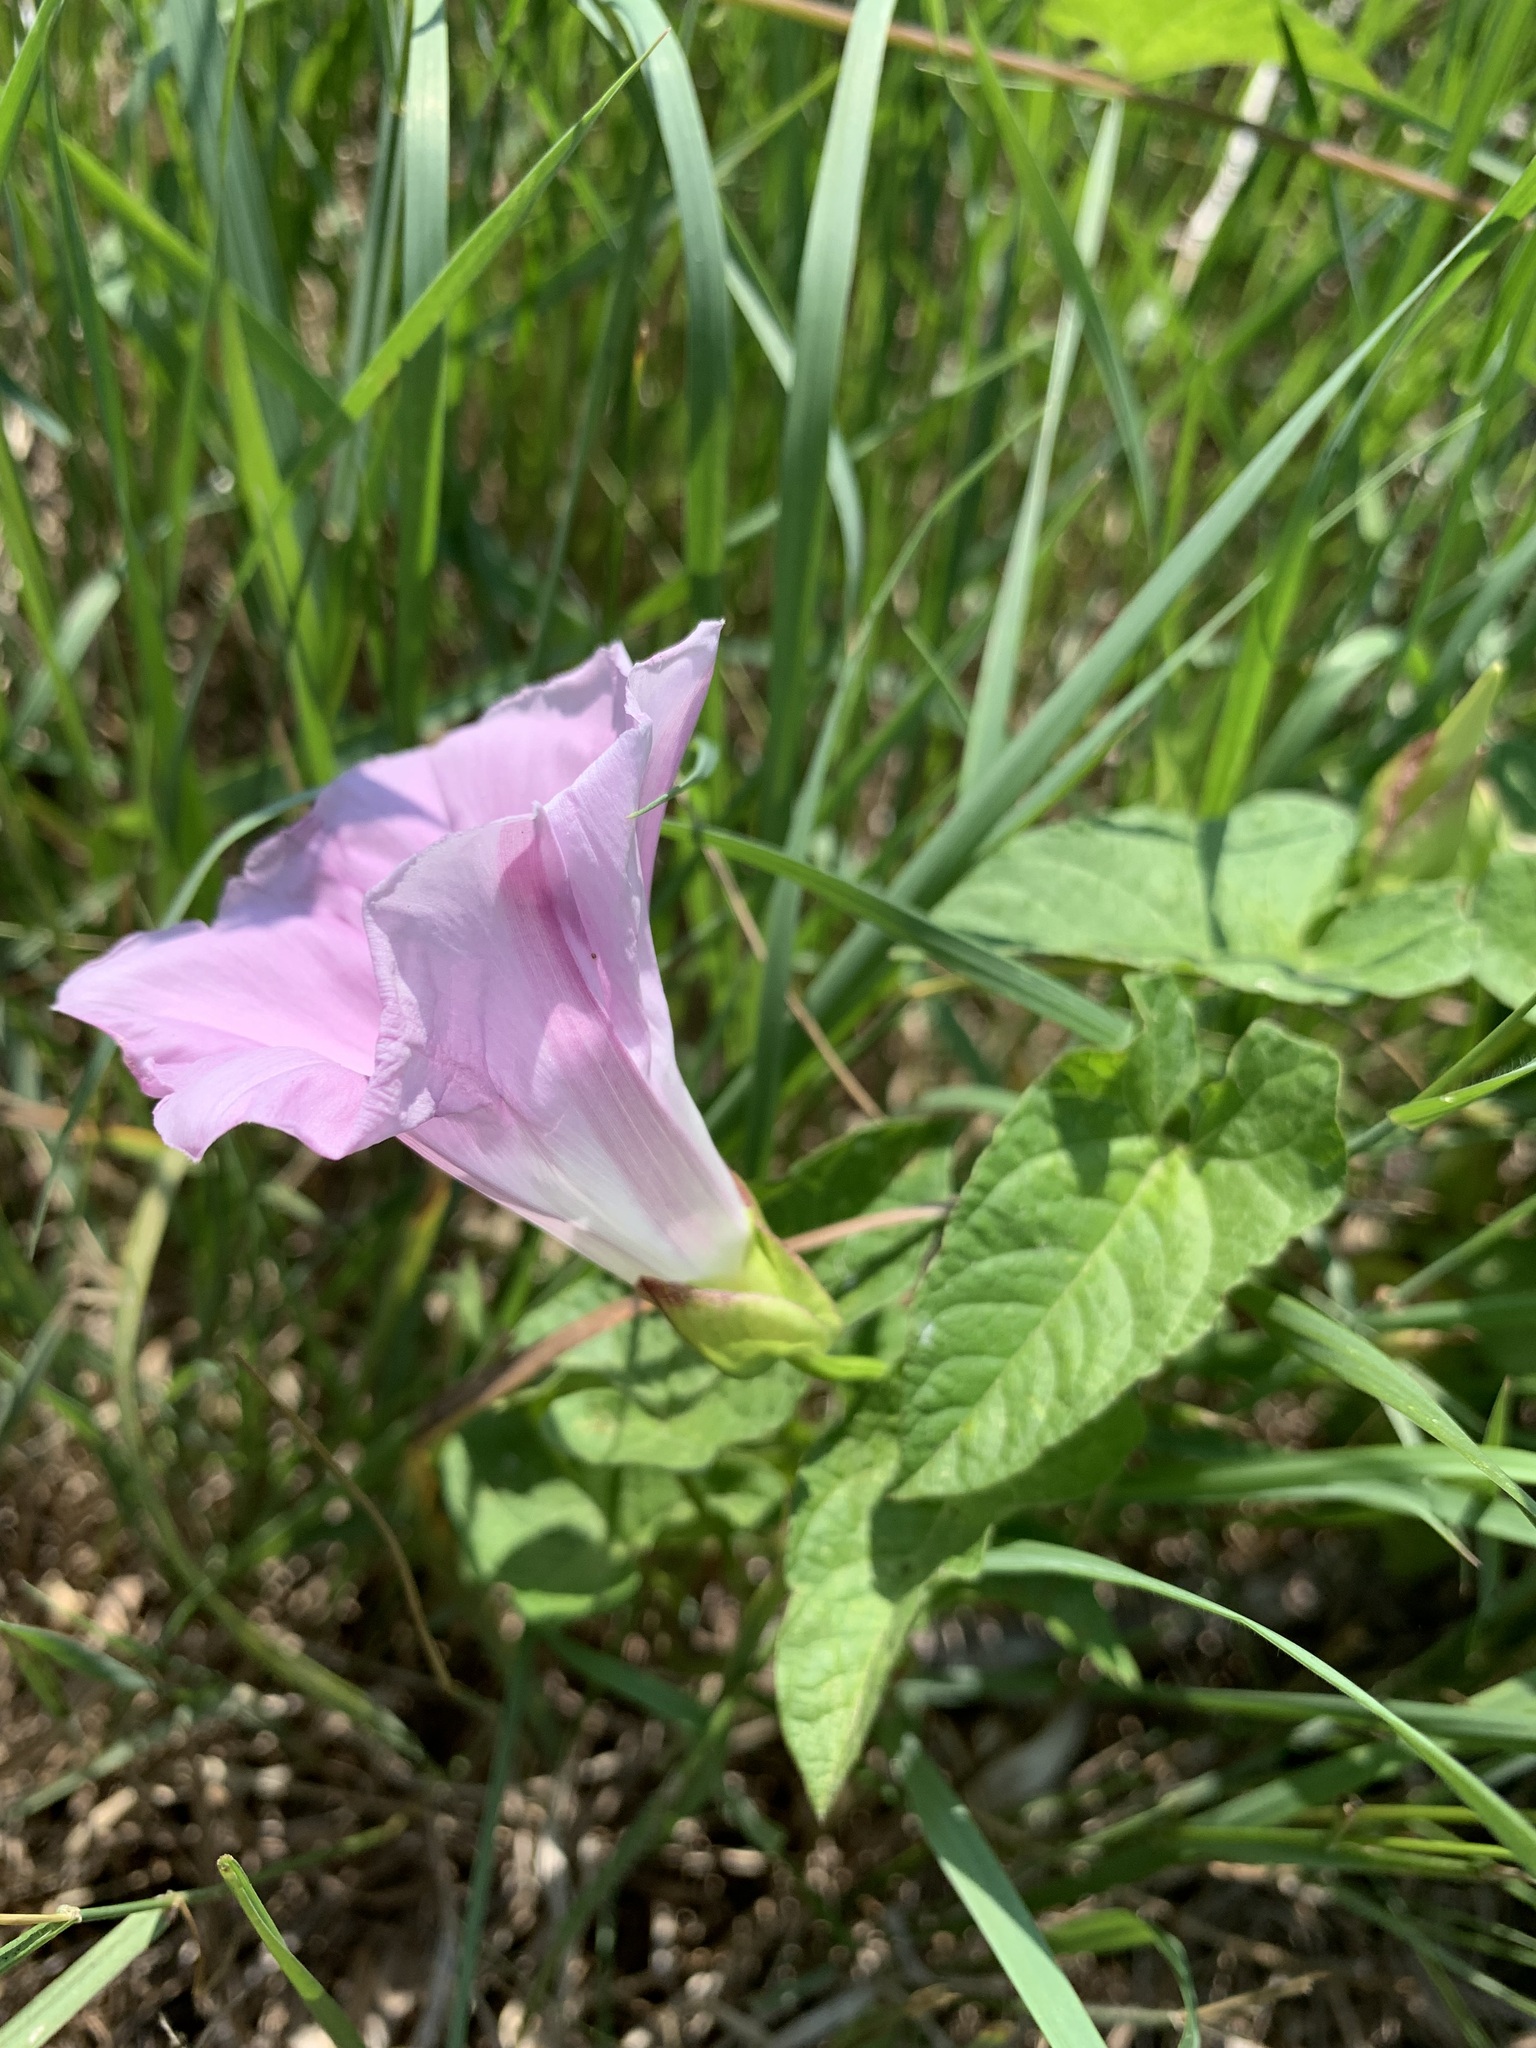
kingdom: Plantae
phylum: Tracheophyta
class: Magnoliopsida
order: Solanales
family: Convolvulaceae
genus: Calystegia
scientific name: Calystegia sepium
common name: Hedge bindweed
